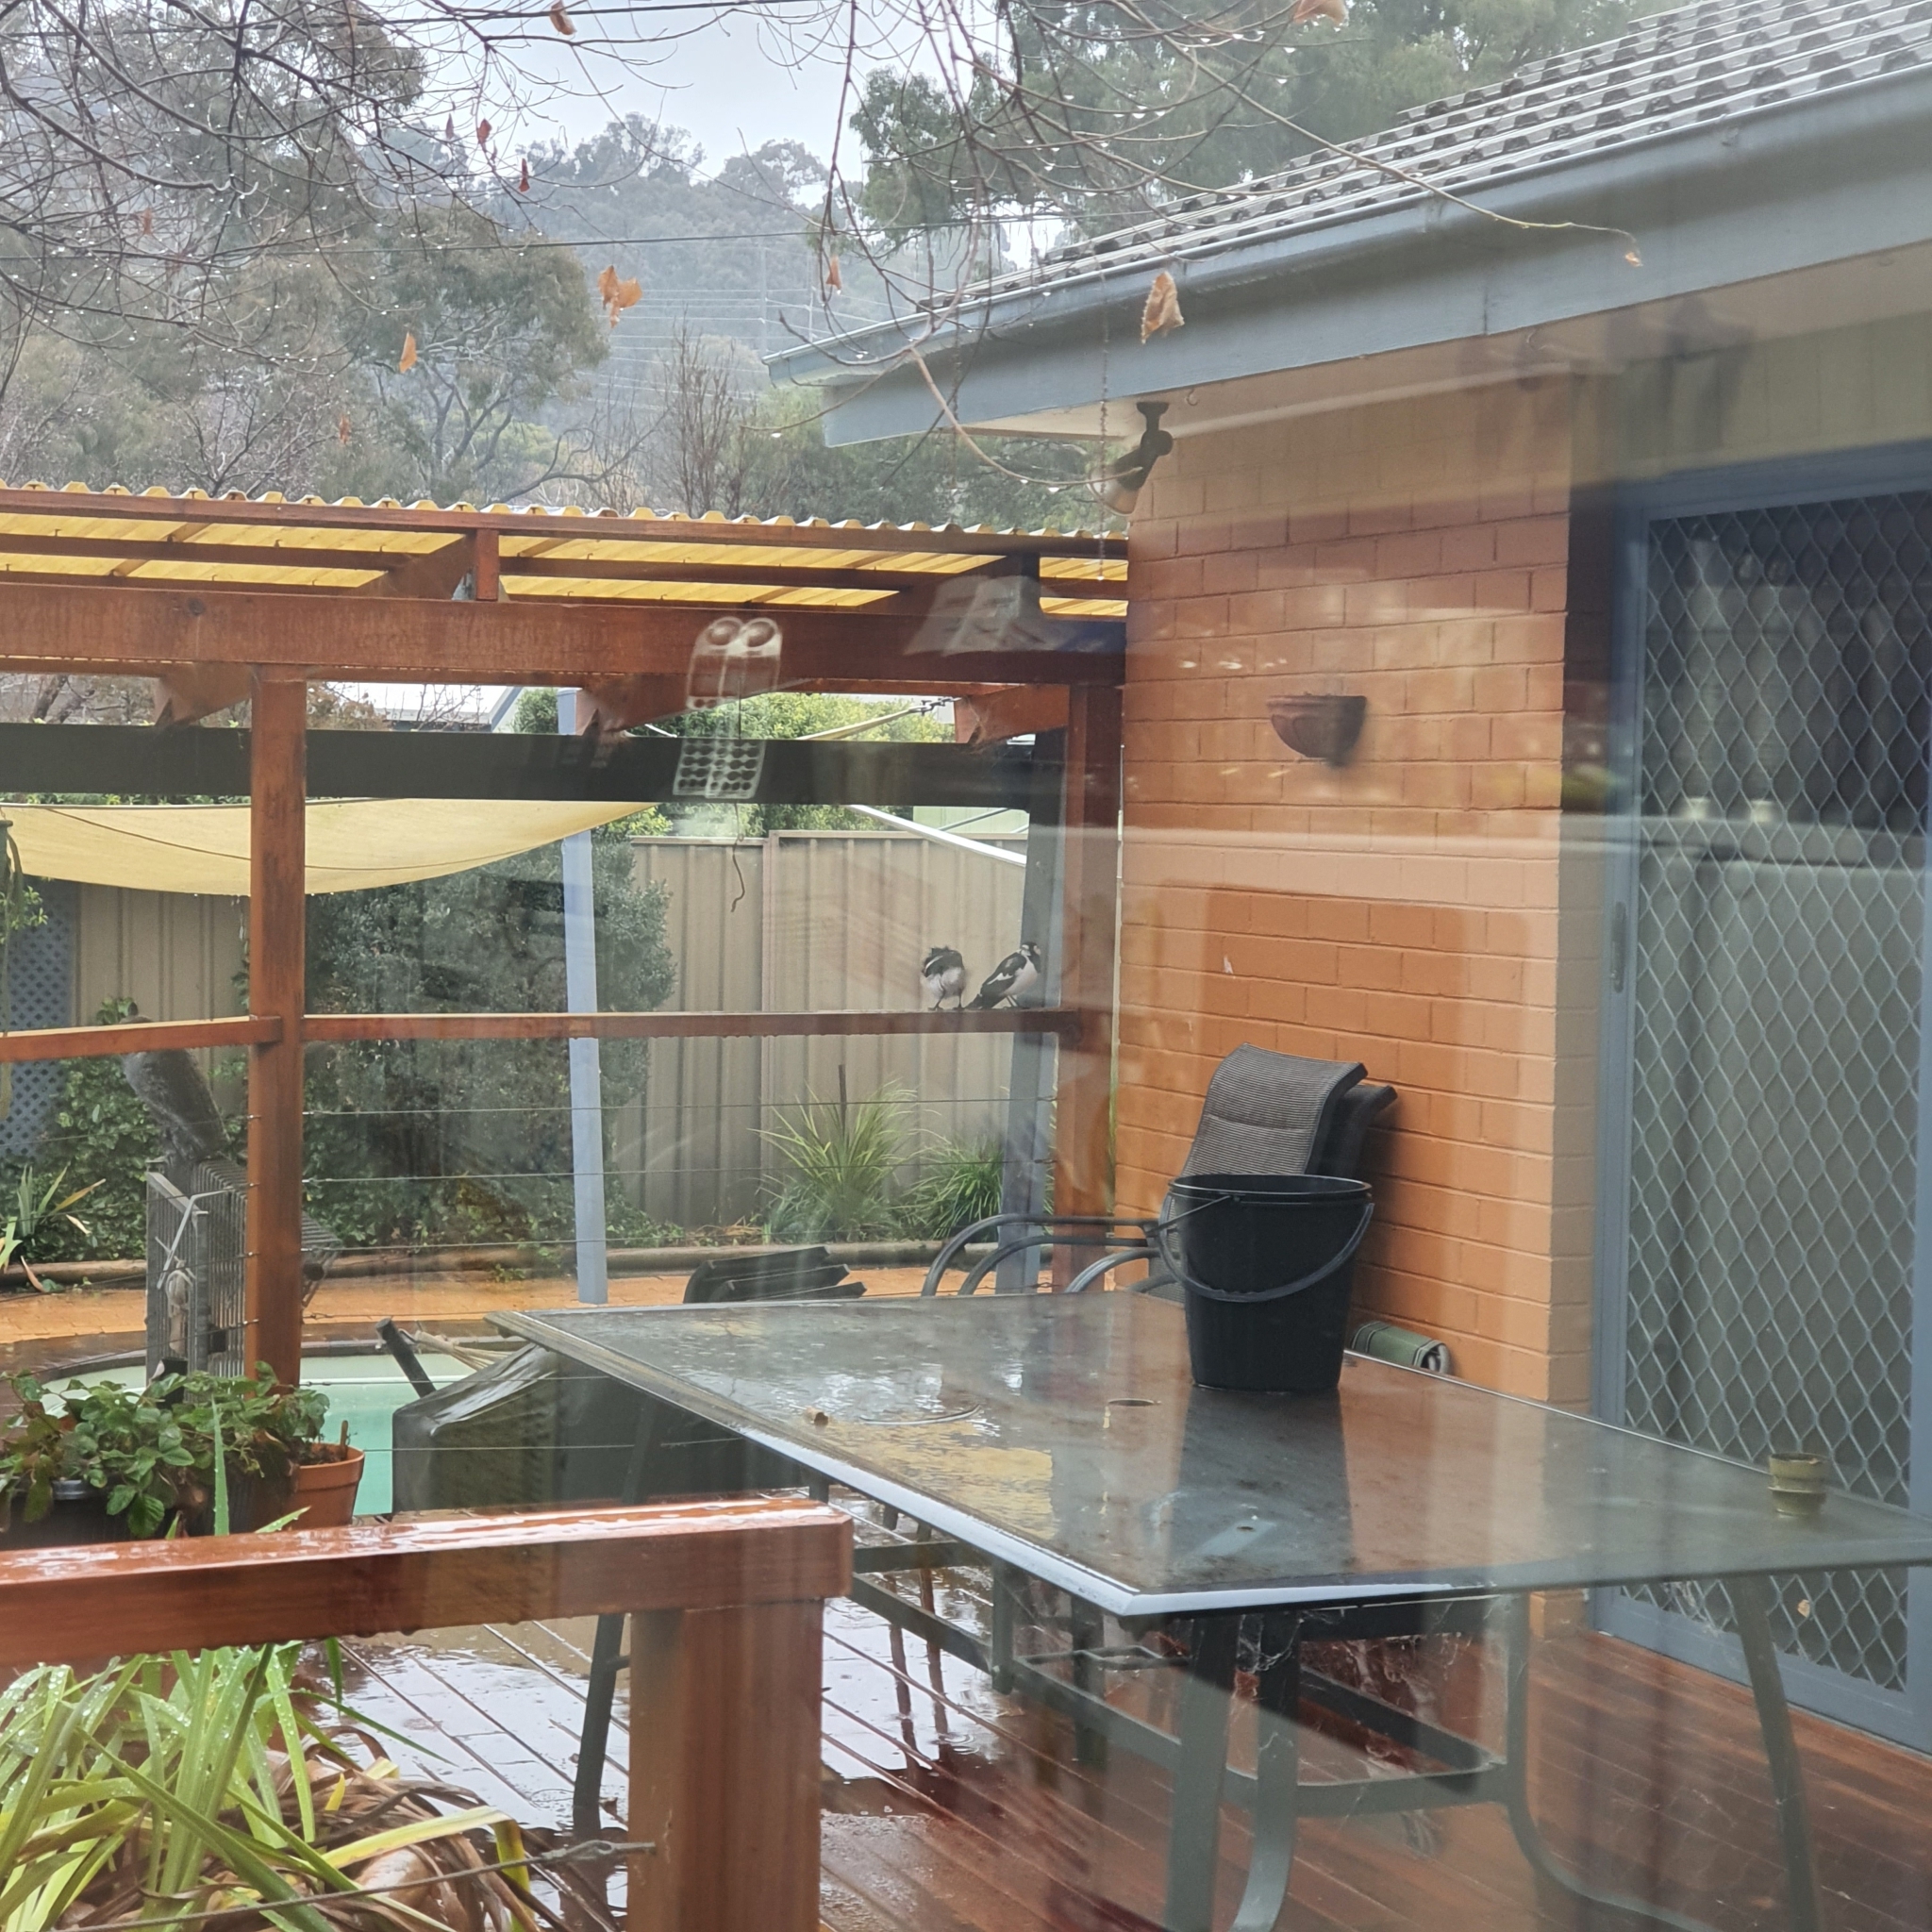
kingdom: Animalia
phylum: Chordata
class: Aves
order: Passeriformes
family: Monarchidae
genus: Grallina
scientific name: Grallina cyanoleuca
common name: Magpie-lark
